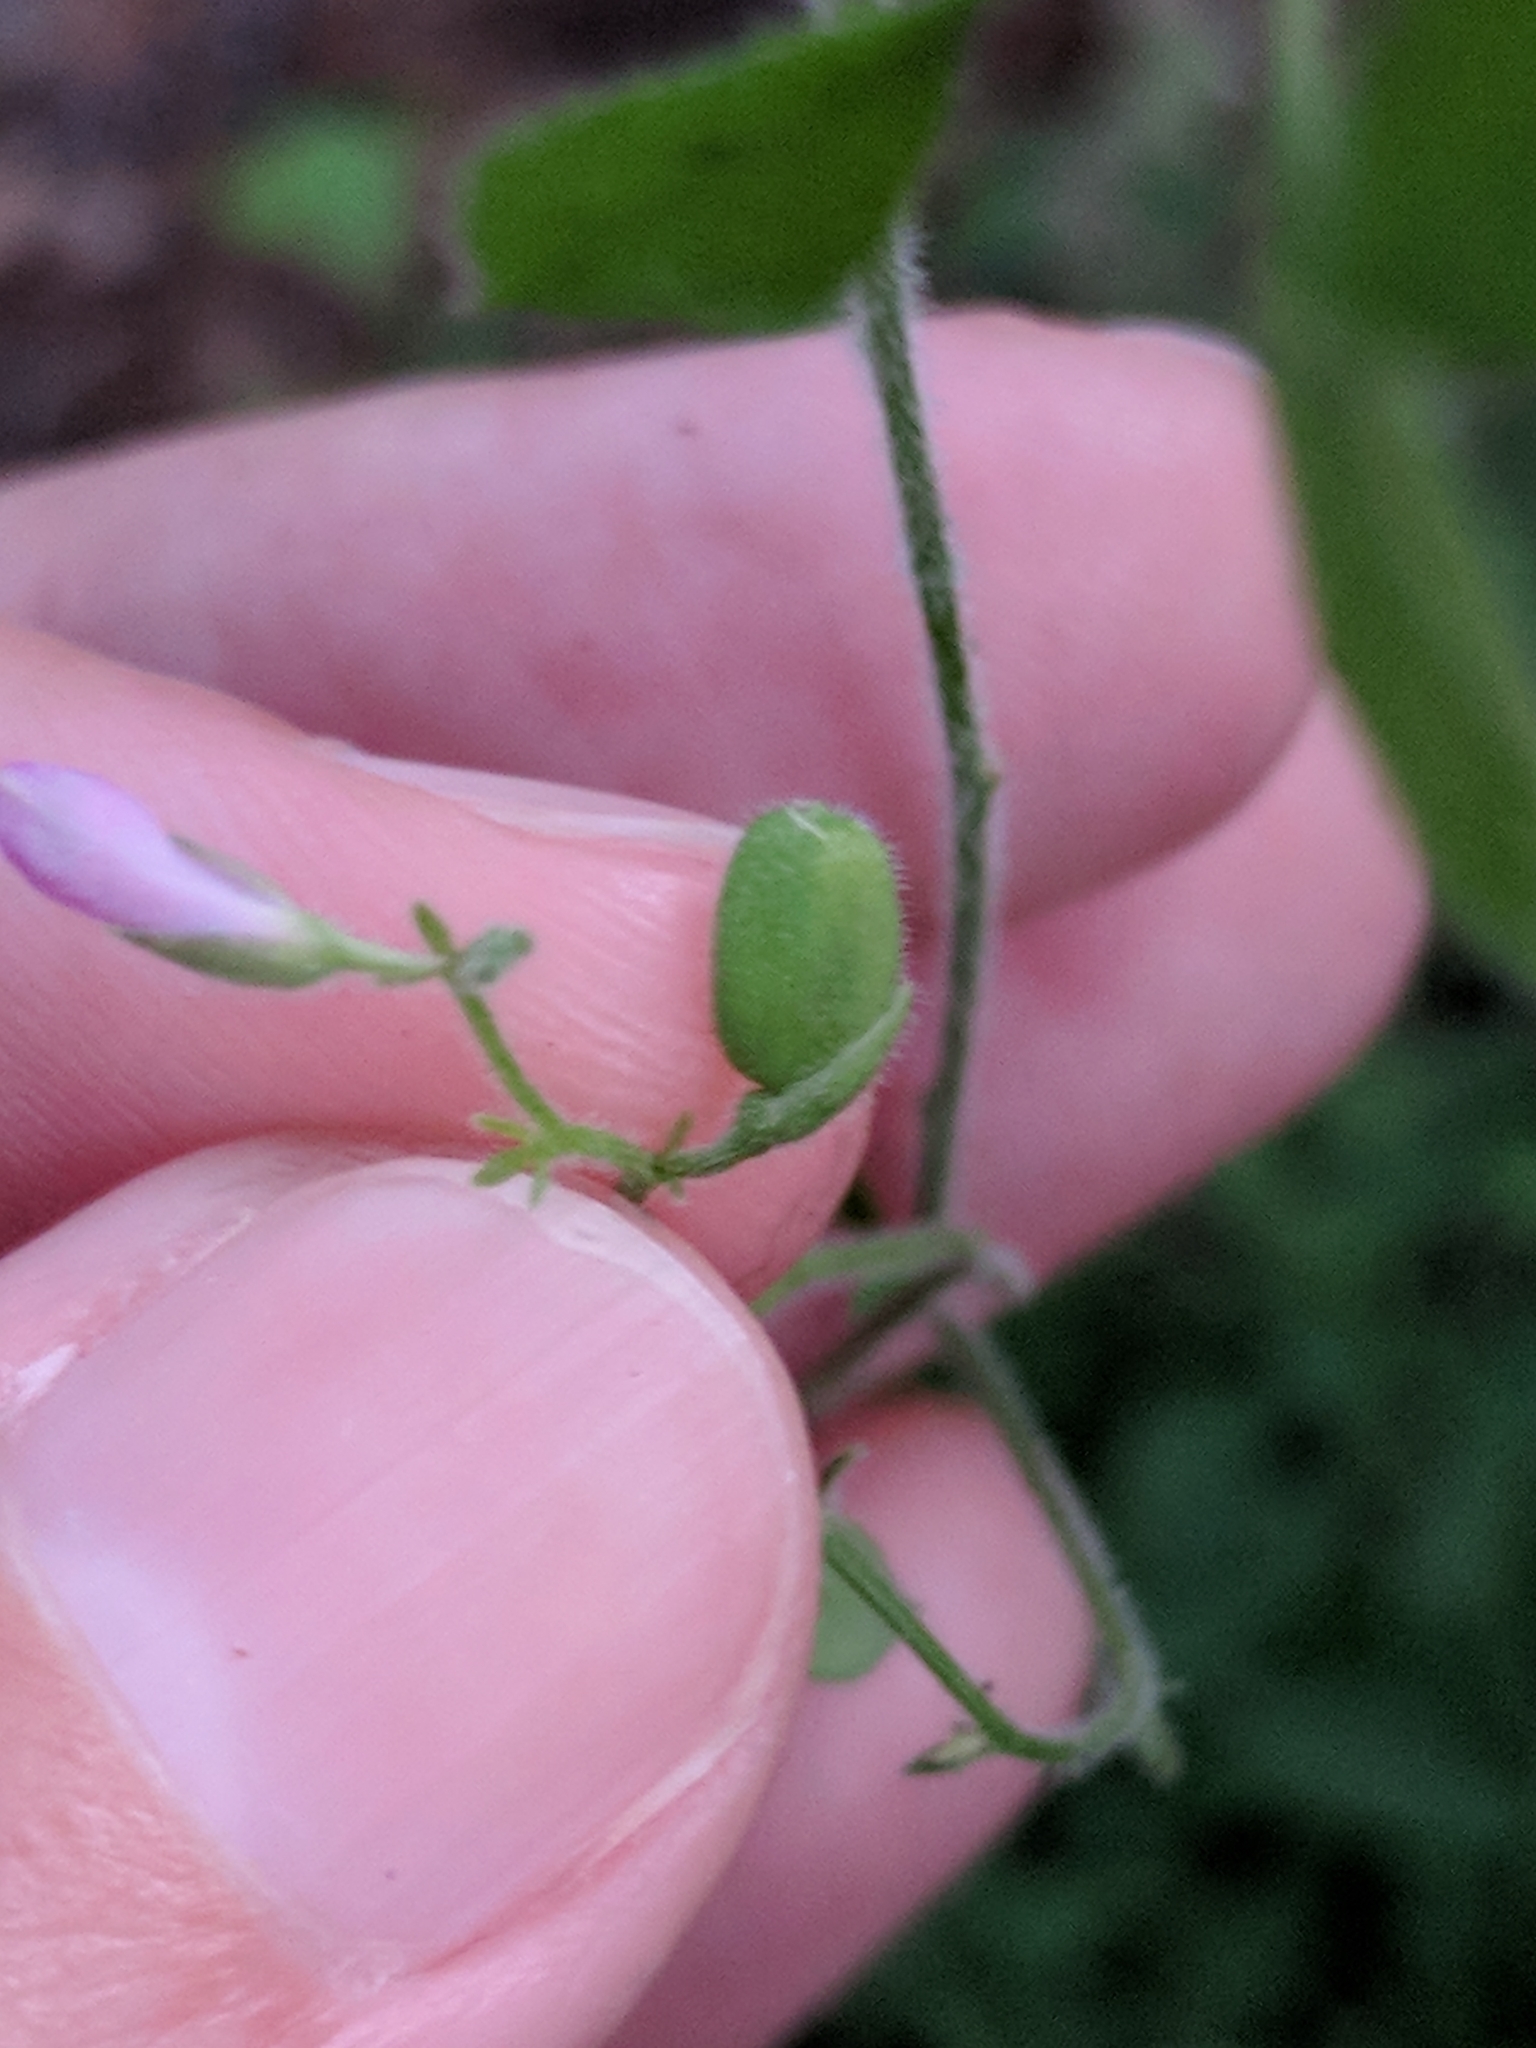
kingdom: Plantae
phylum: Tracheophyta
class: Magnoliopsida
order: Fabales
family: Polygalaceae
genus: Rhinotropis
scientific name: Rhinotropis lindheimeri
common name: Shrubby milkwort
